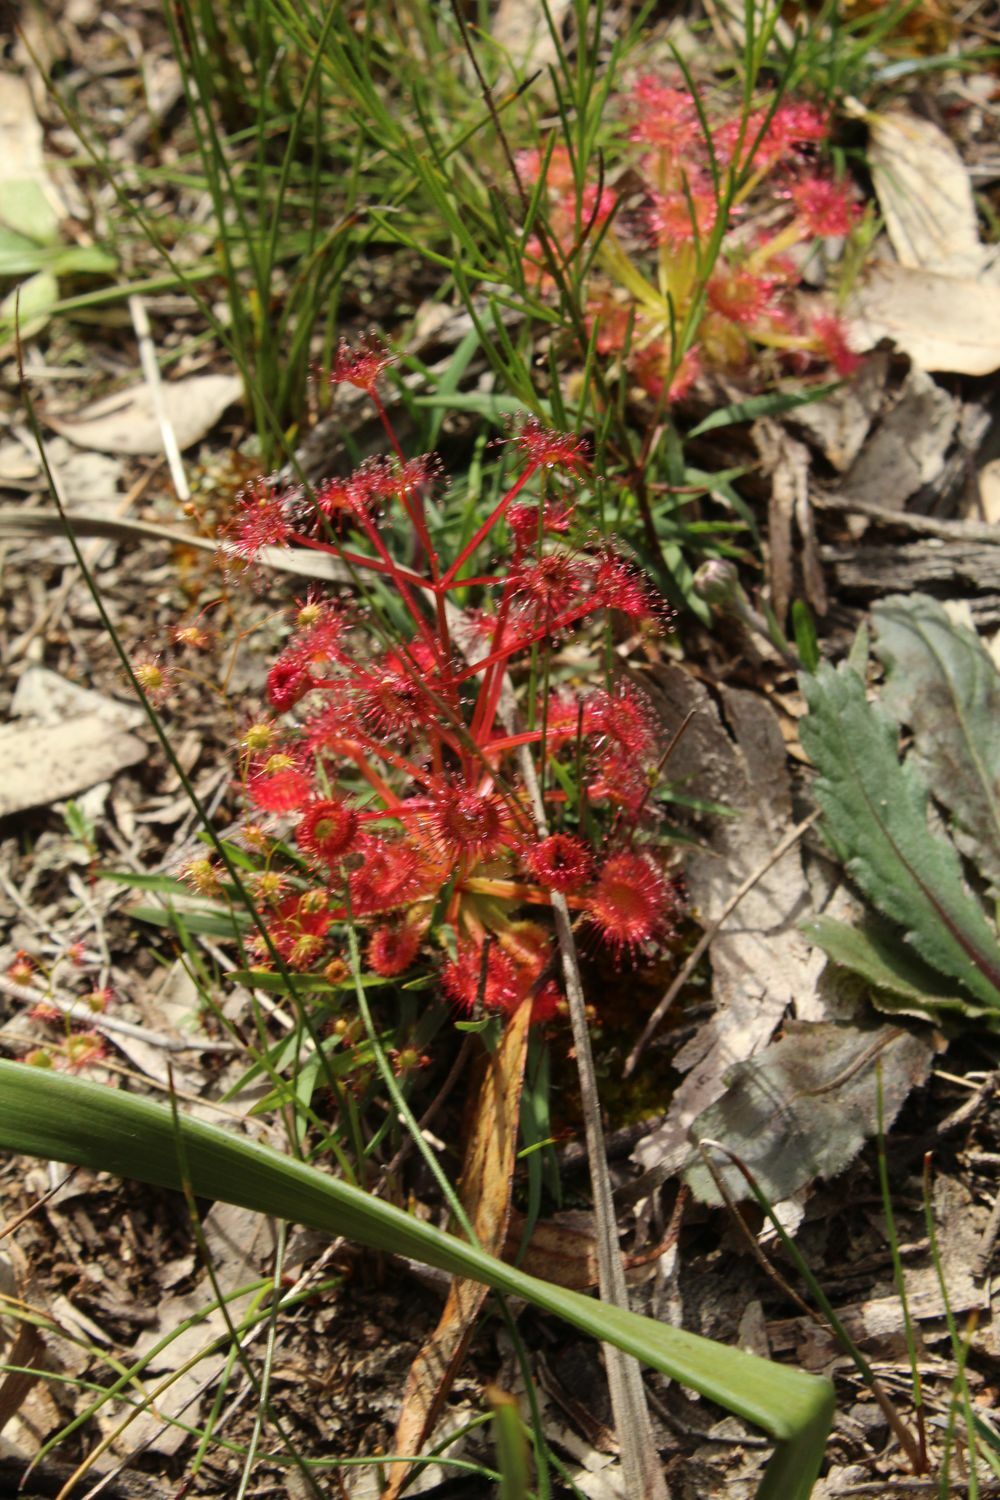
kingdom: Plantae
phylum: Tracheophyta
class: Magnoliopsida
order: Caryophyllales
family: Droseraceae
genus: Drosera
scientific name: Drosera stolonifera
